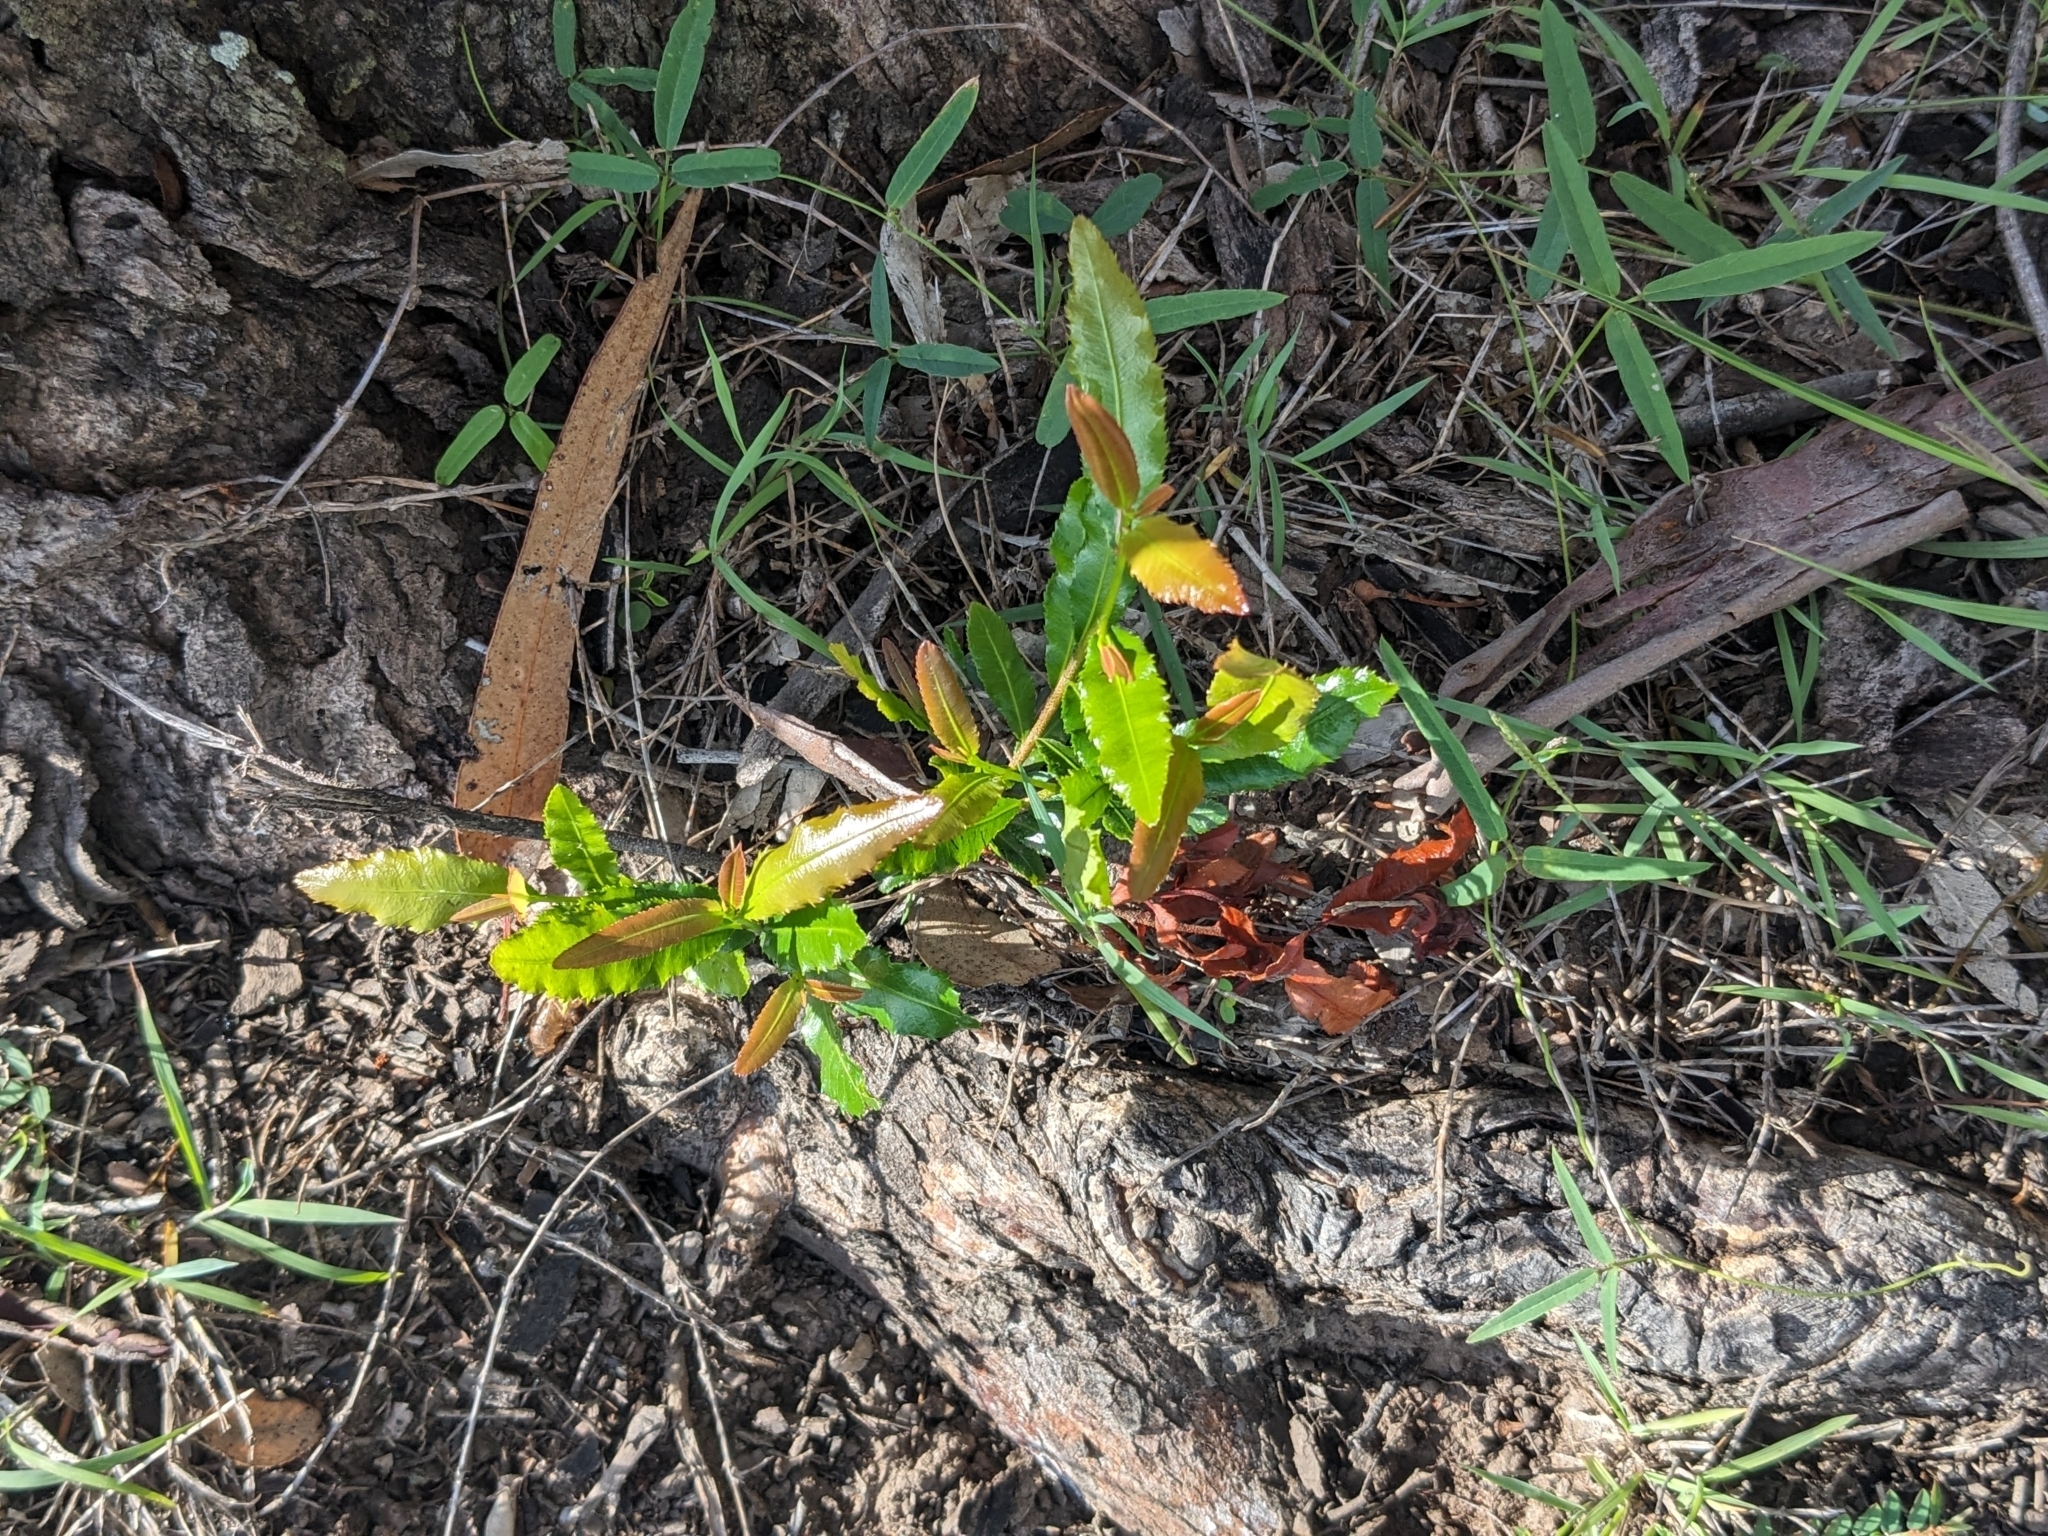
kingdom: Plantae
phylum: Tracheophyta
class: Magnoliopsida
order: Malpighiales
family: Ochnaceae
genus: Ochna
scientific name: Ochna serrulata
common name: Mickey mouse plant
